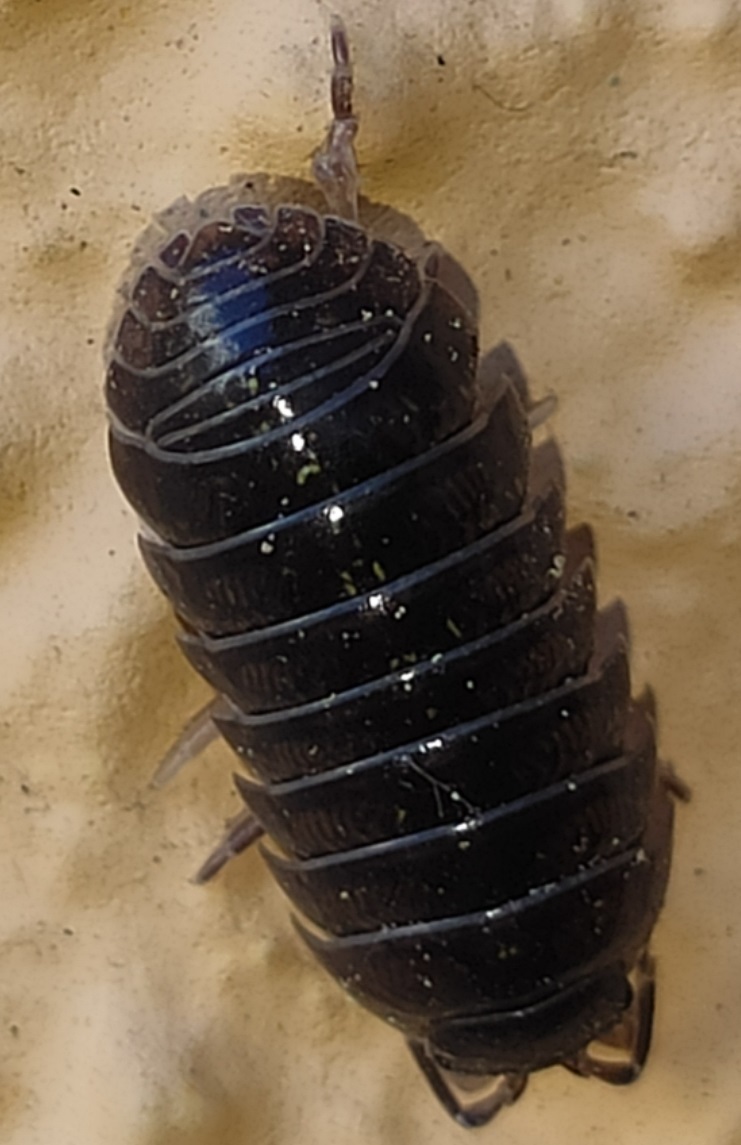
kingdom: Animalia
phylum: Arthropoda
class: Malacostraca
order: Isopoda
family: Armadillidiidae
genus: Armadillidium
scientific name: Armadillidium vulgare
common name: Common pill woodlouse
